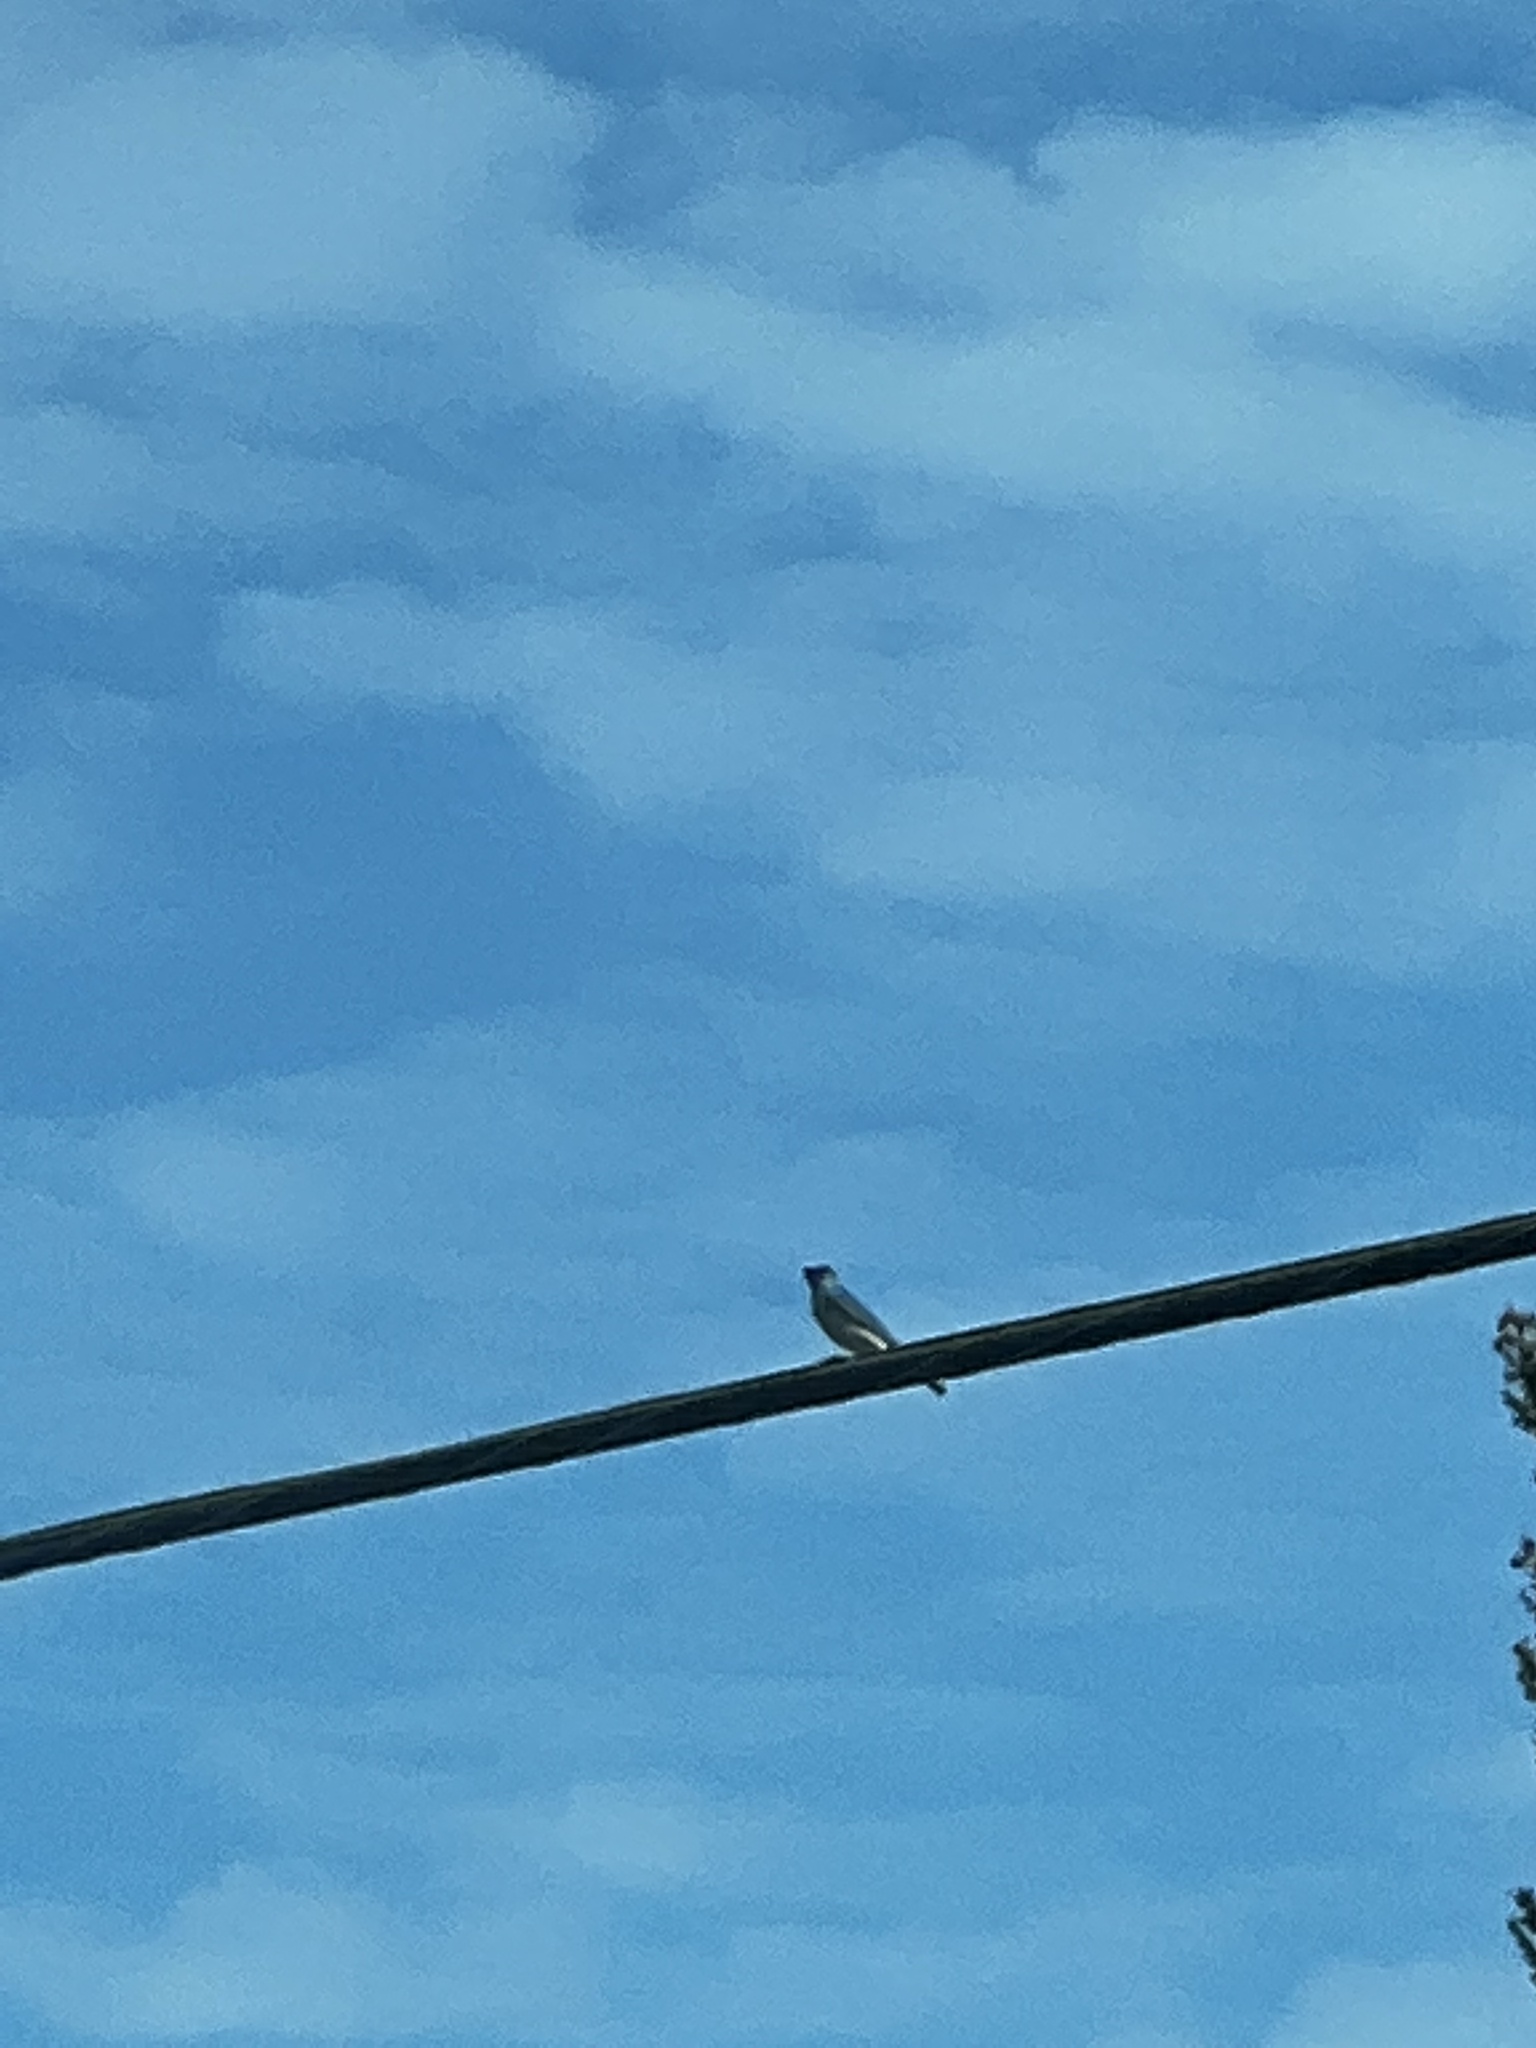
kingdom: Animalia
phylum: Chordata
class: Aves
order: Passeriformes
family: Turdidae
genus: Sialia
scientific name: Sialia currucoides
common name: Mountain bluebird
